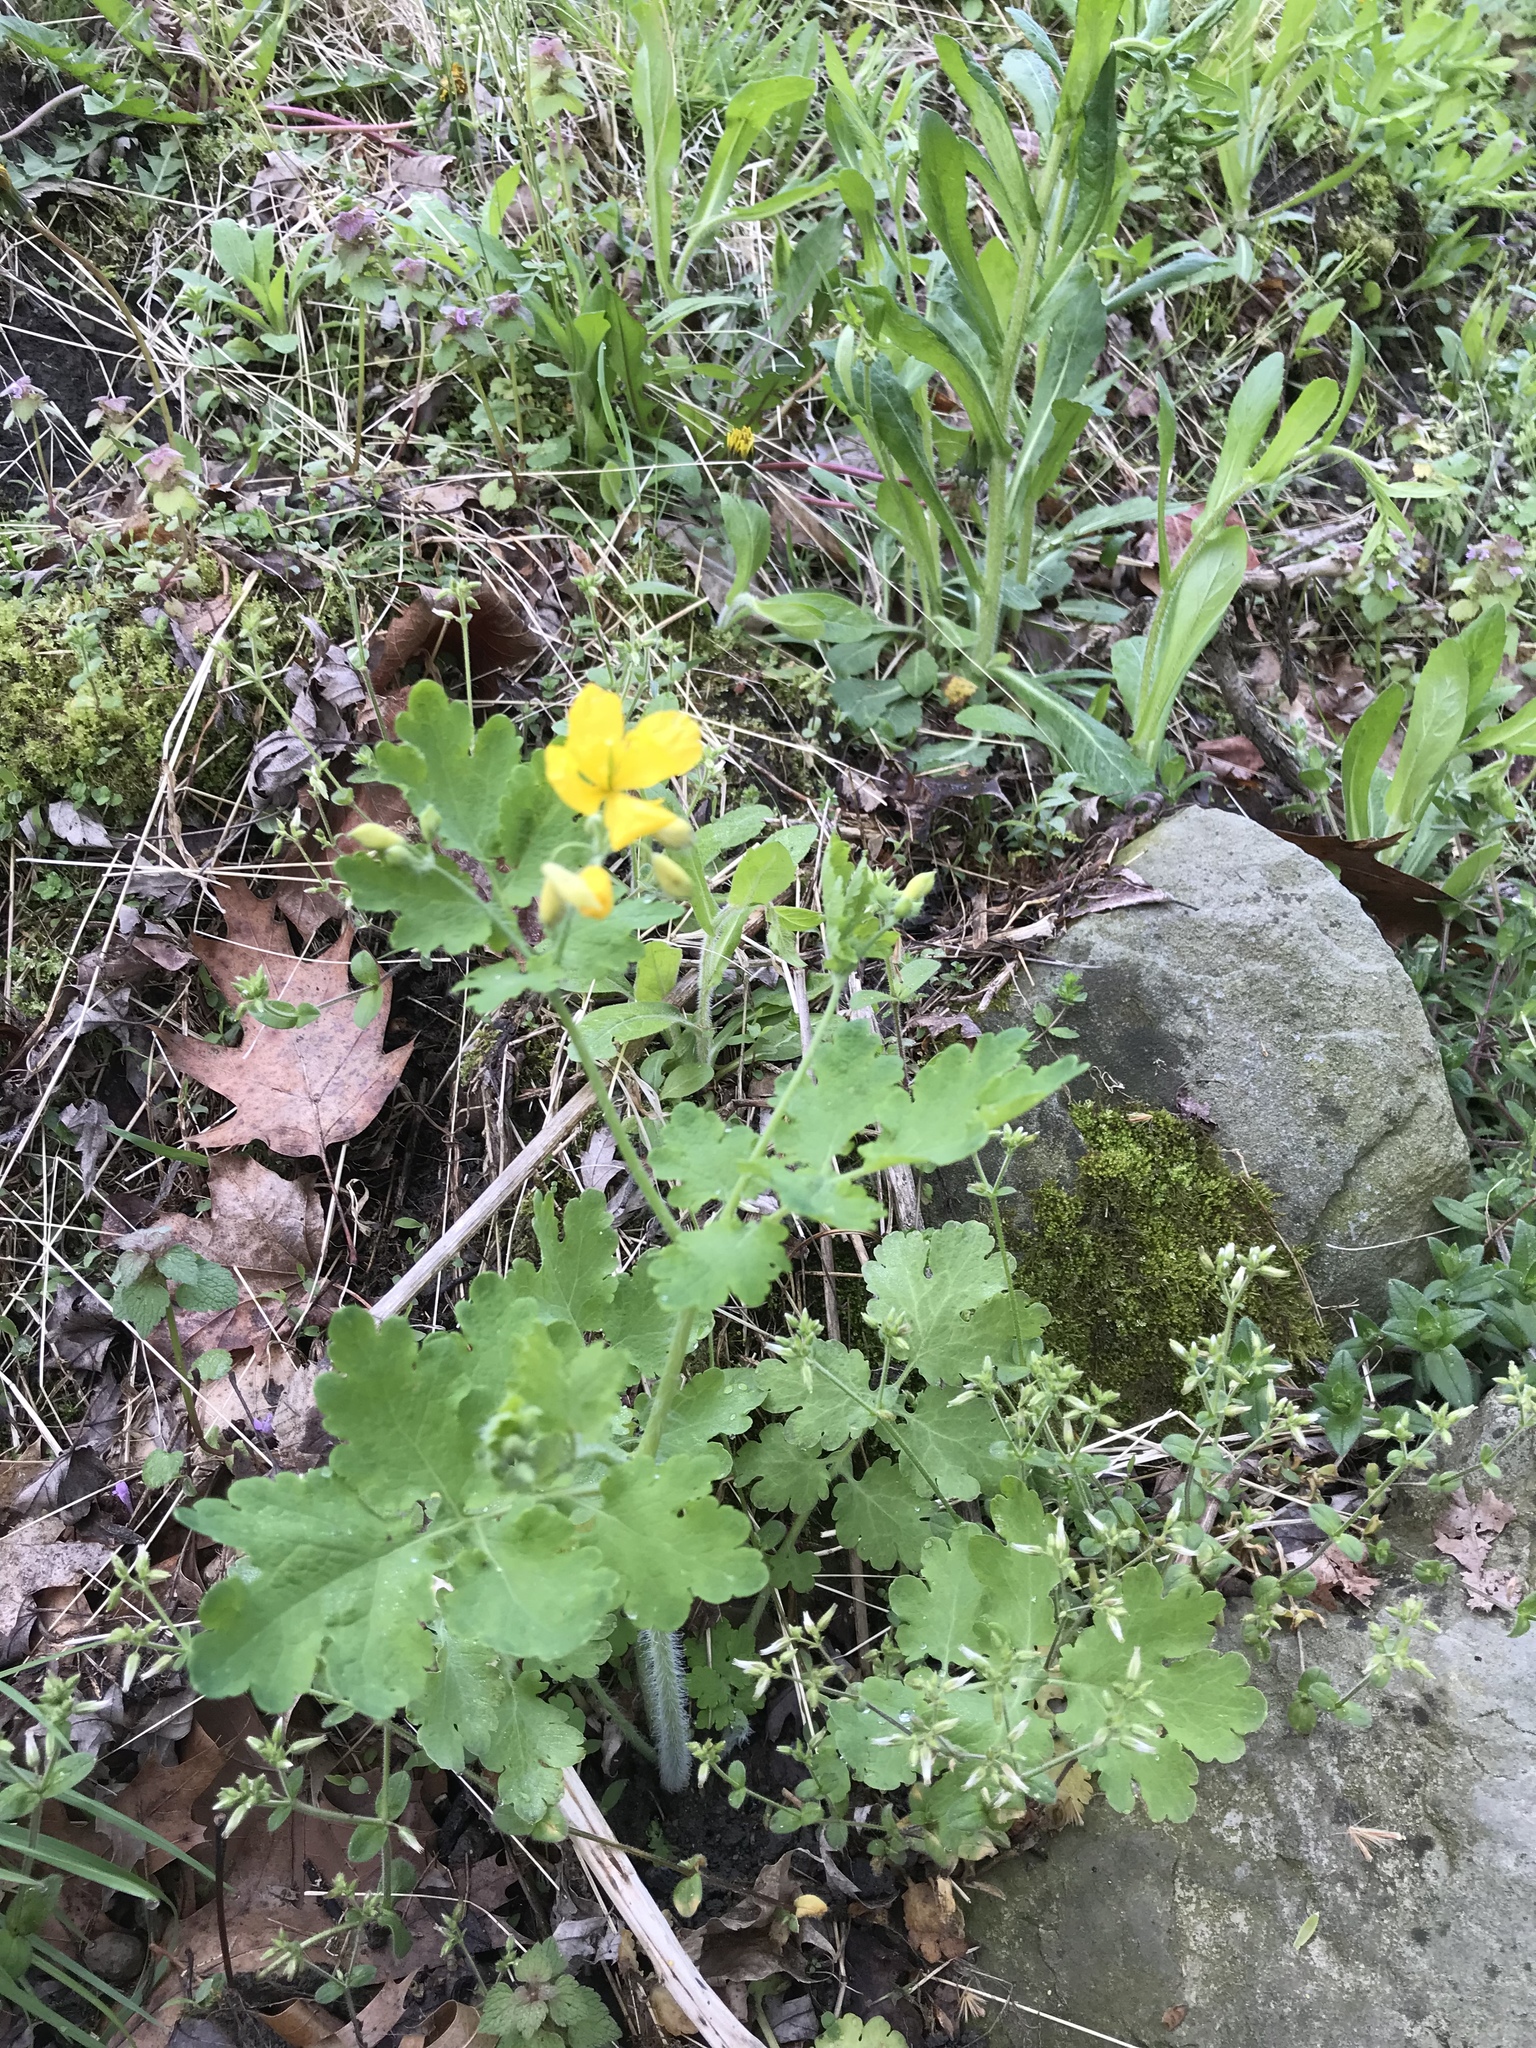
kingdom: Plantae
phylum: Tracheophyta
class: Magnoliopsida
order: Ranunculales
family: Papaveraceae
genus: Chelidonium
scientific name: Chelidonium majus
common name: Greater celandine
